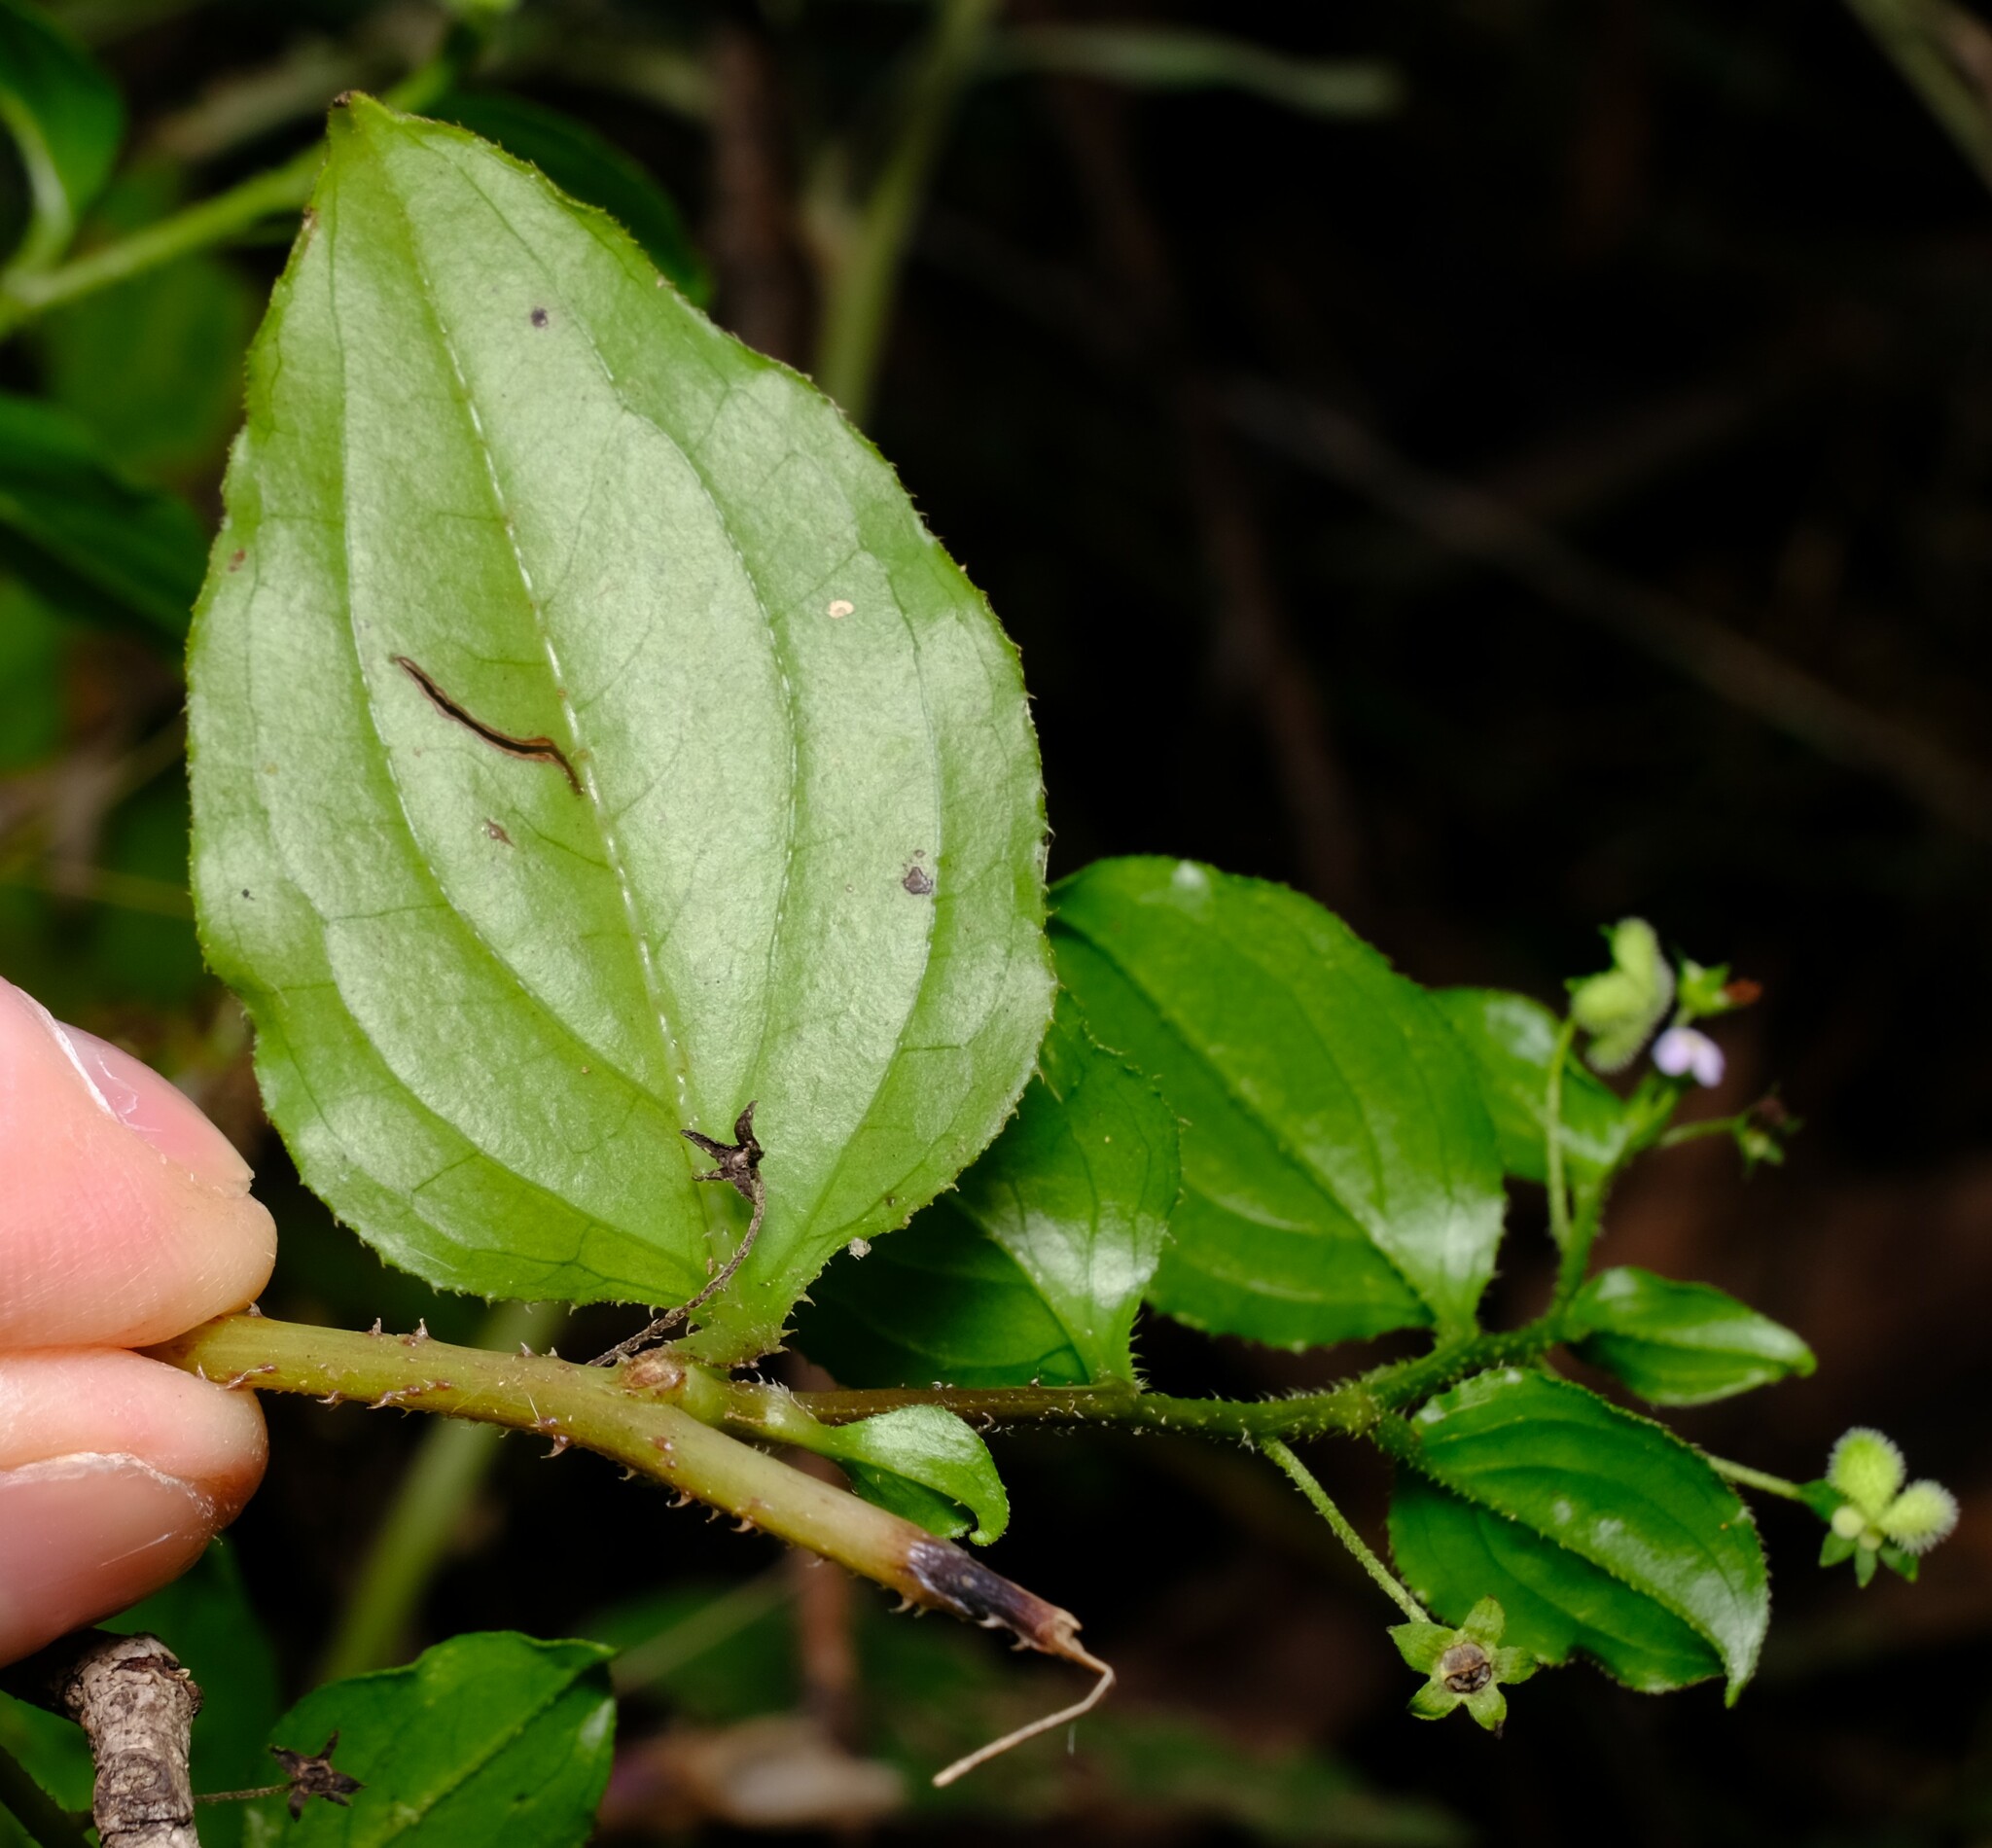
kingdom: Plantae
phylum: Tracheophyta
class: Magnoliopsida
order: Boraginales
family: Boraginaceae
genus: Hackelia
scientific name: Hackelia latifolia
